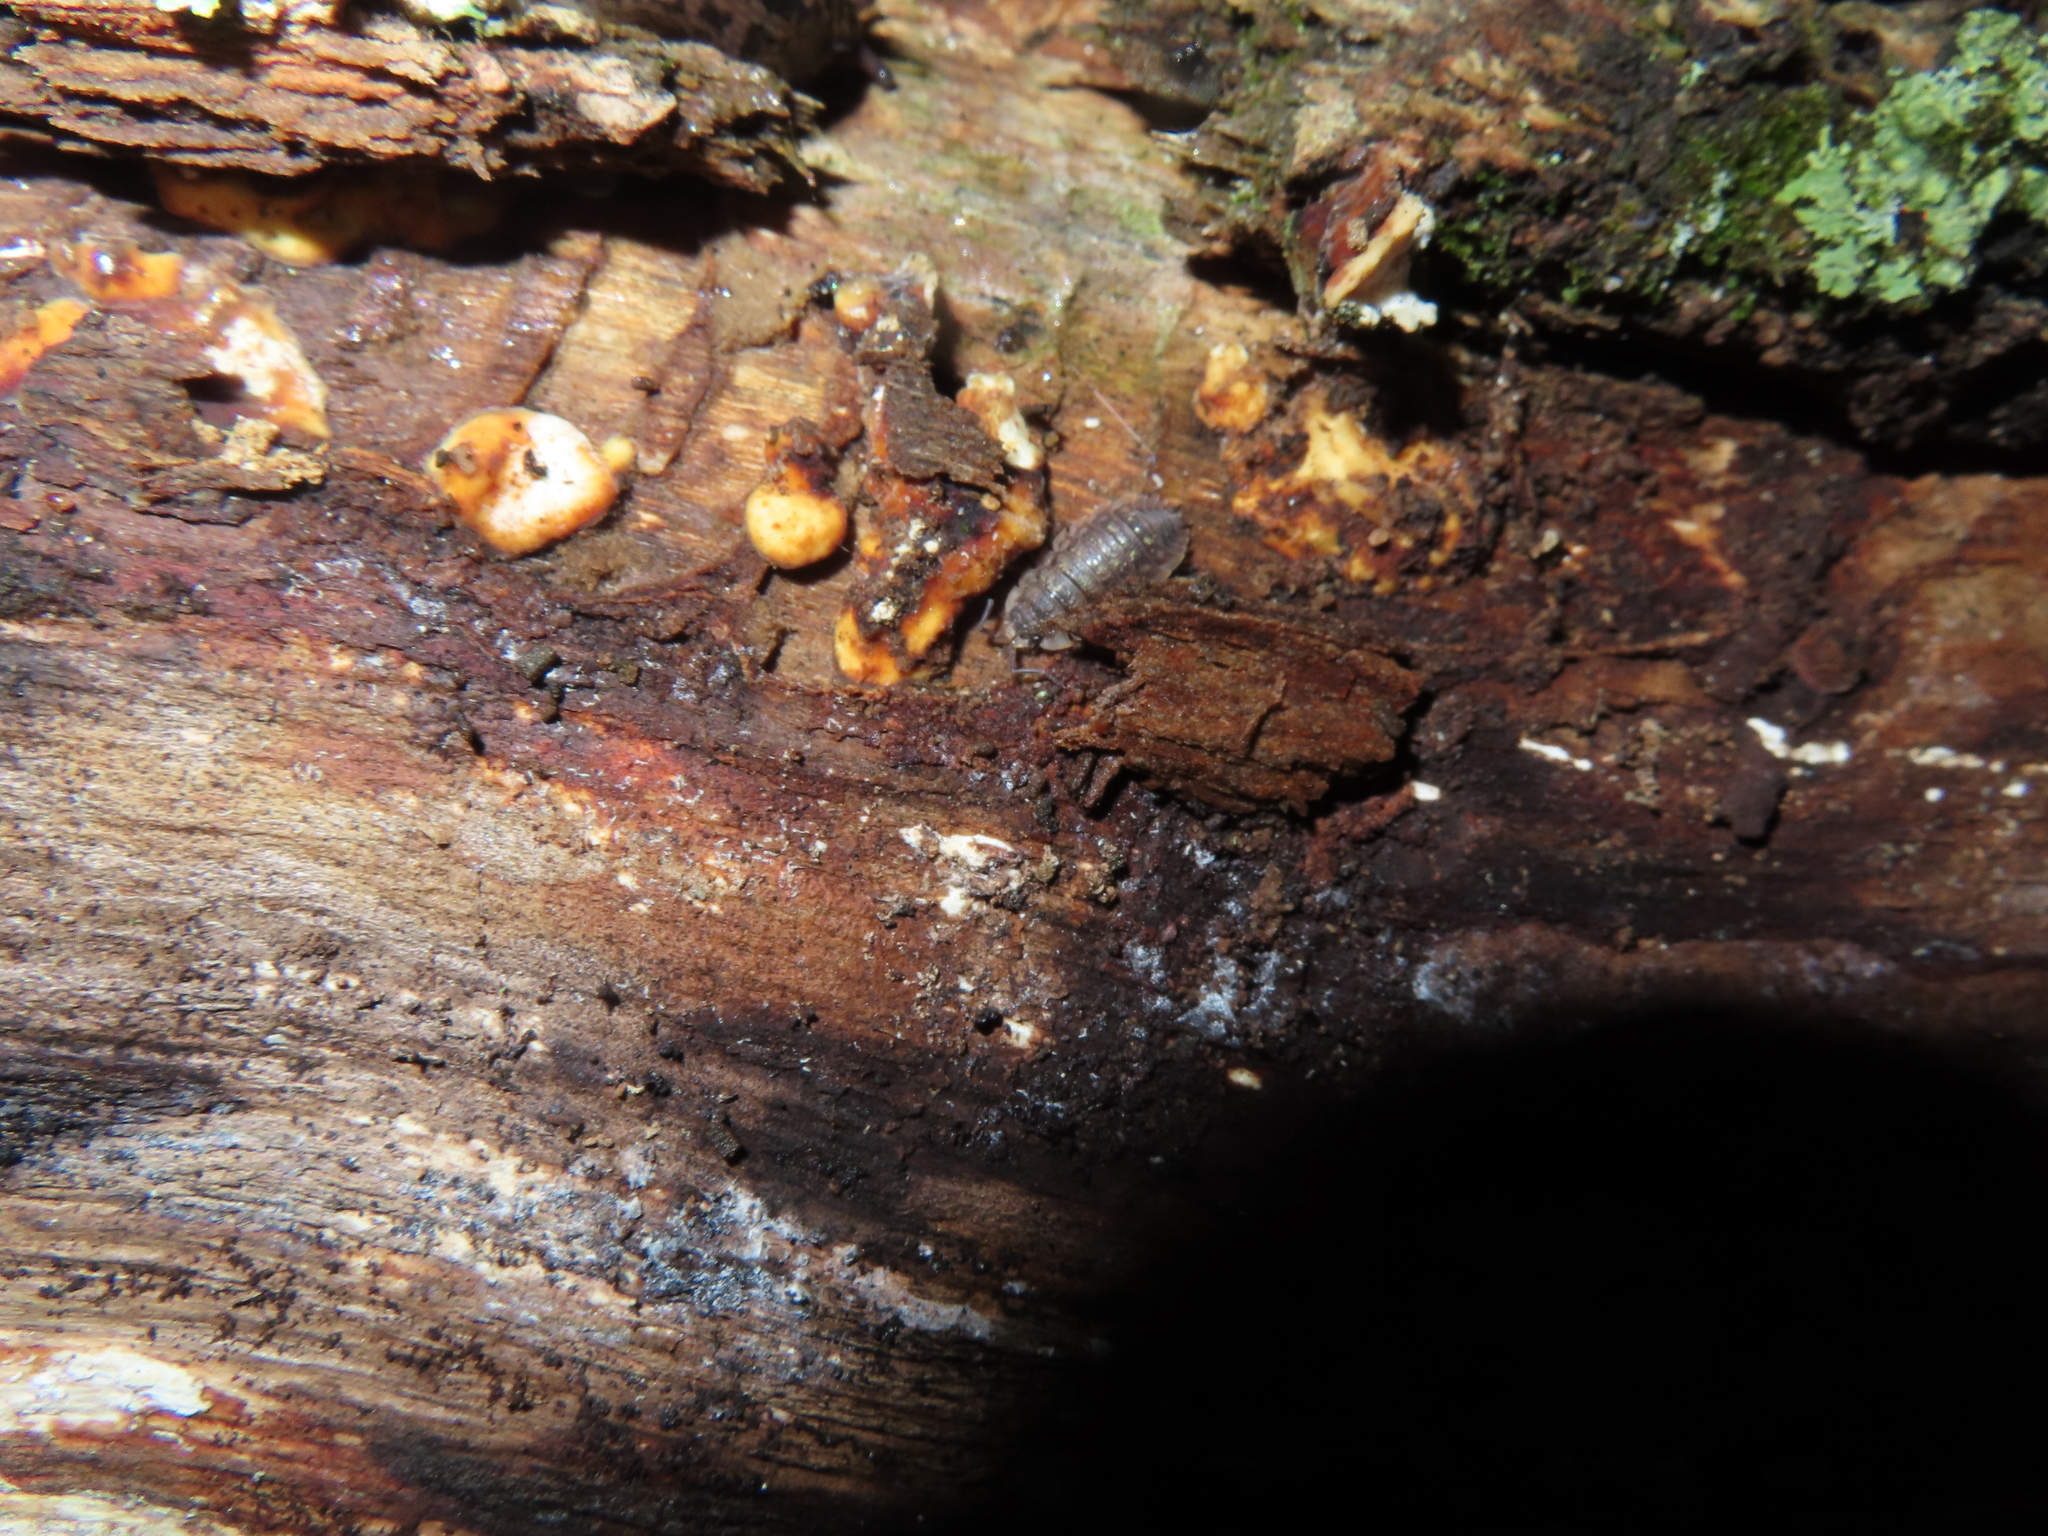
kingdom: Animalia
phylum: Arthropoda
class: Malacostraca
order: Isopoda
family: Oniscidae
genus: Oniscus
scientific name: Oniscus asellus
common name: Common shiny woodlouse
